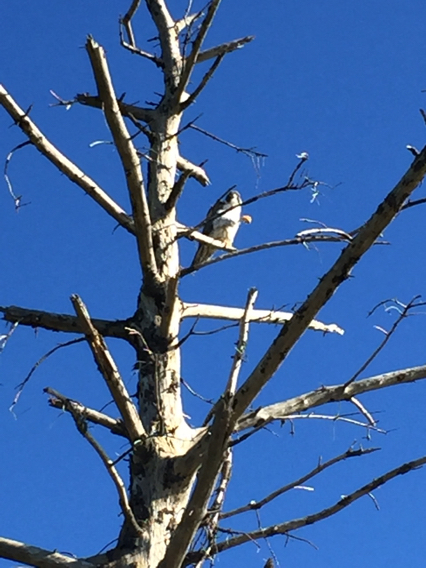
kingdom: Animalia
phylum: Chordata
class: Aves
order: Falconiformes
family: Falconidae
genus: Falco
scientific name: Falco peregrinus
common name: Peregrine falcon
